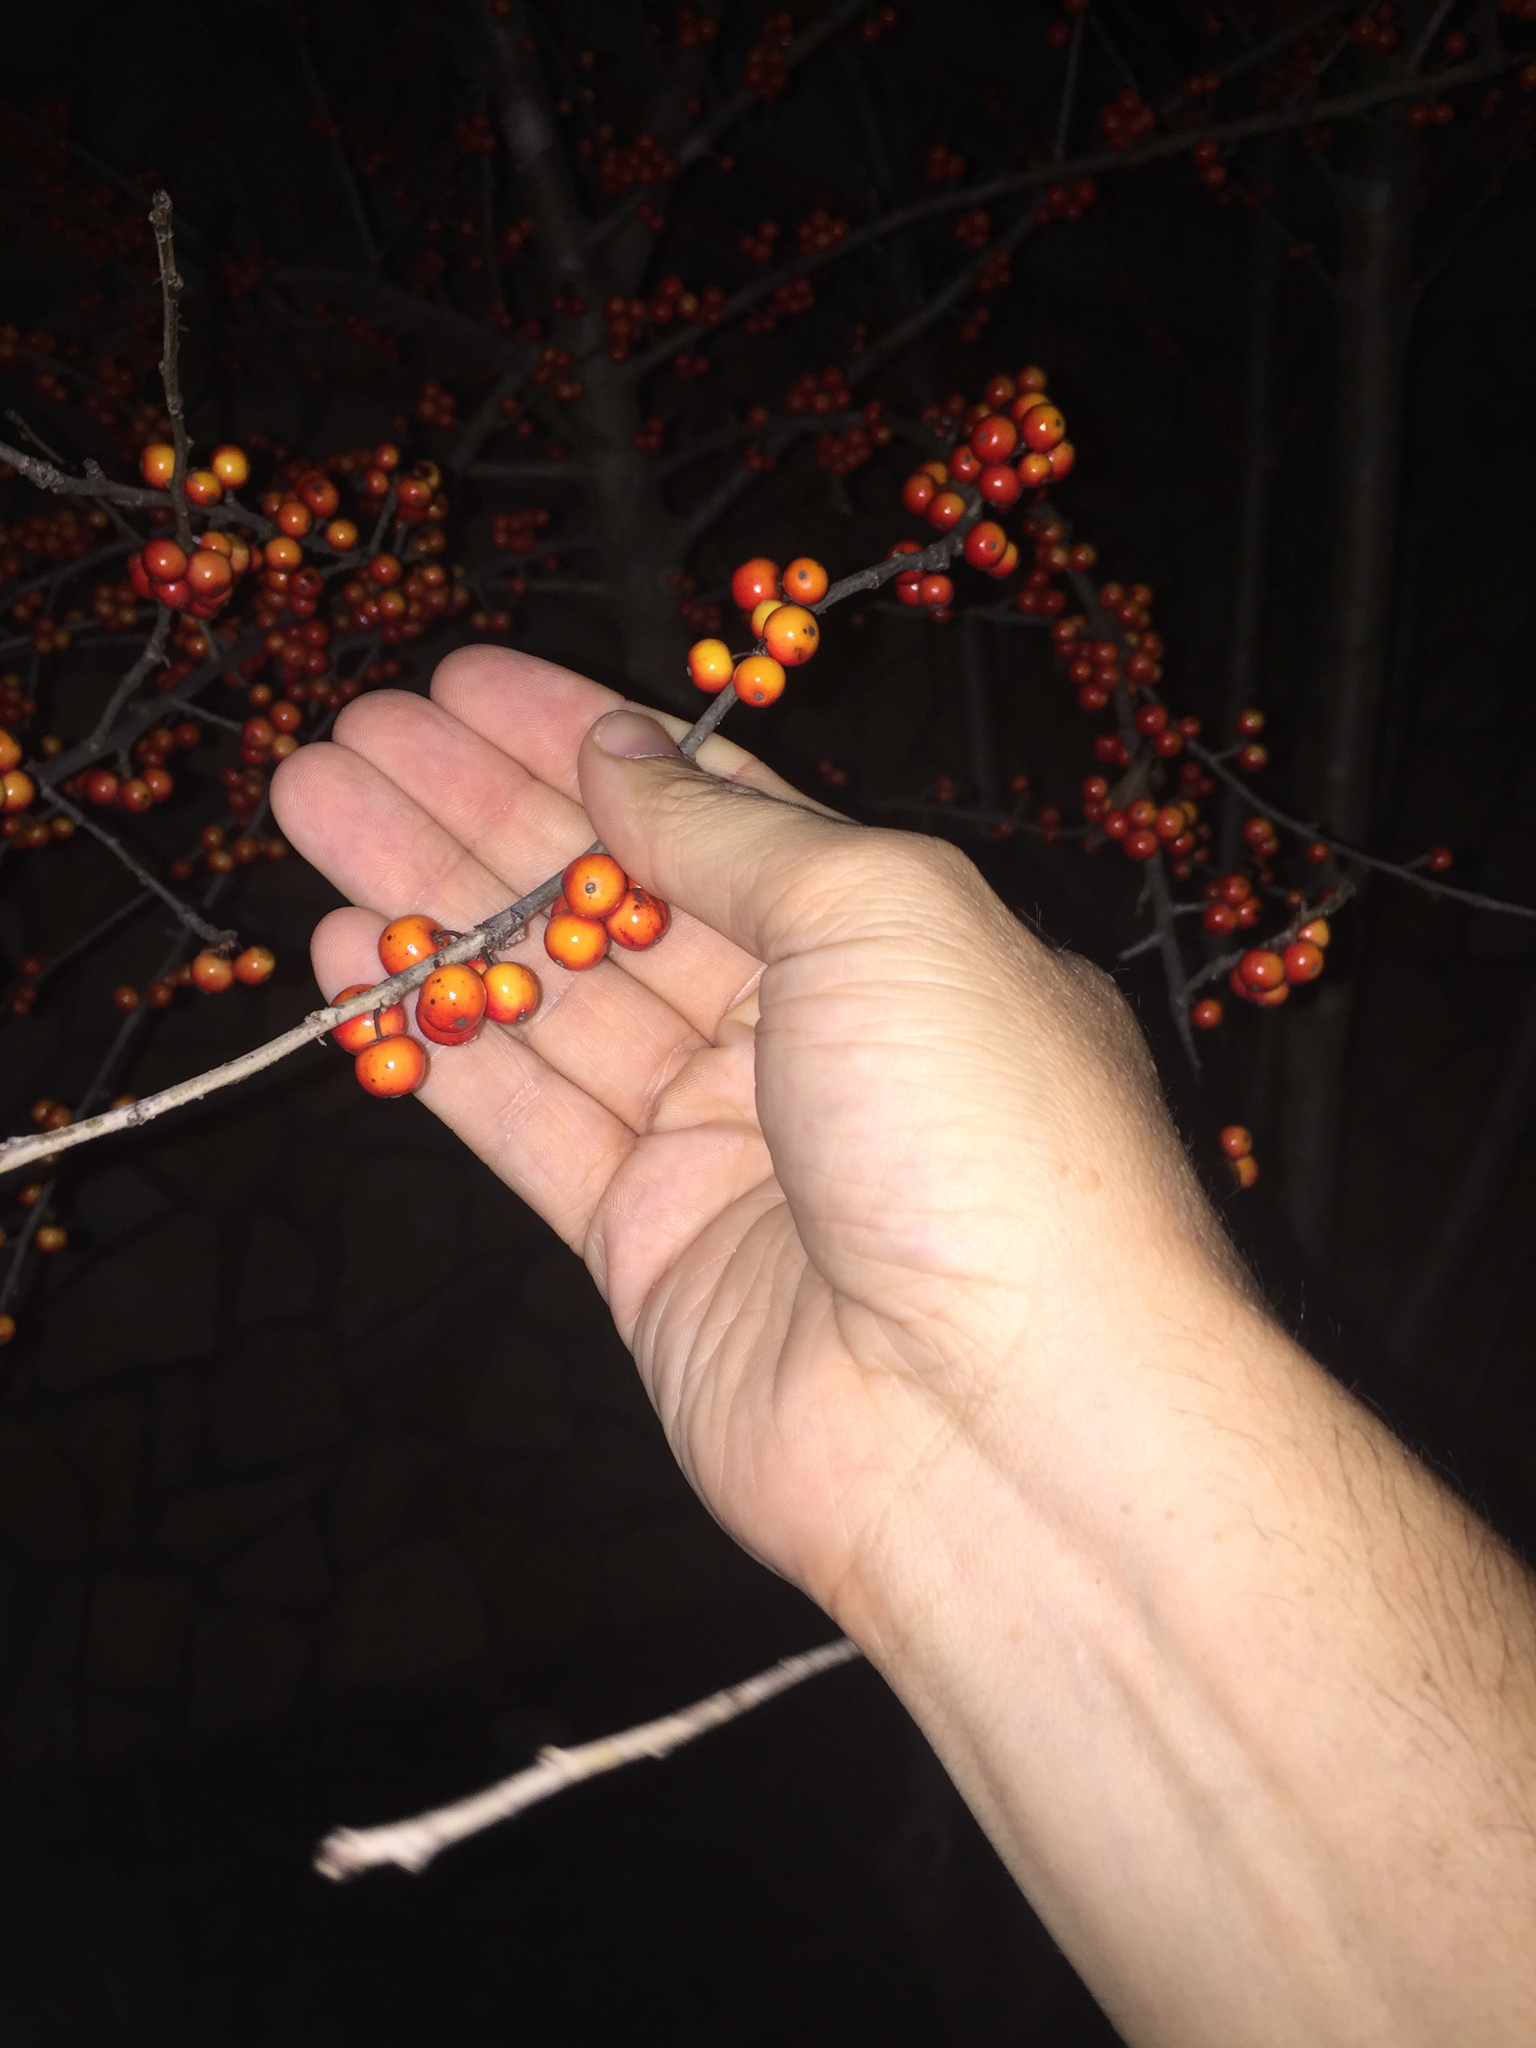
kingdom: Plantae
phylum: Tracheophyta
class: Magnoliopsida
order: Aquifoliales
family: Aquifoliaceae
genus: Ilex
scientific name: Ilex decidua
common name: Possum-haw
